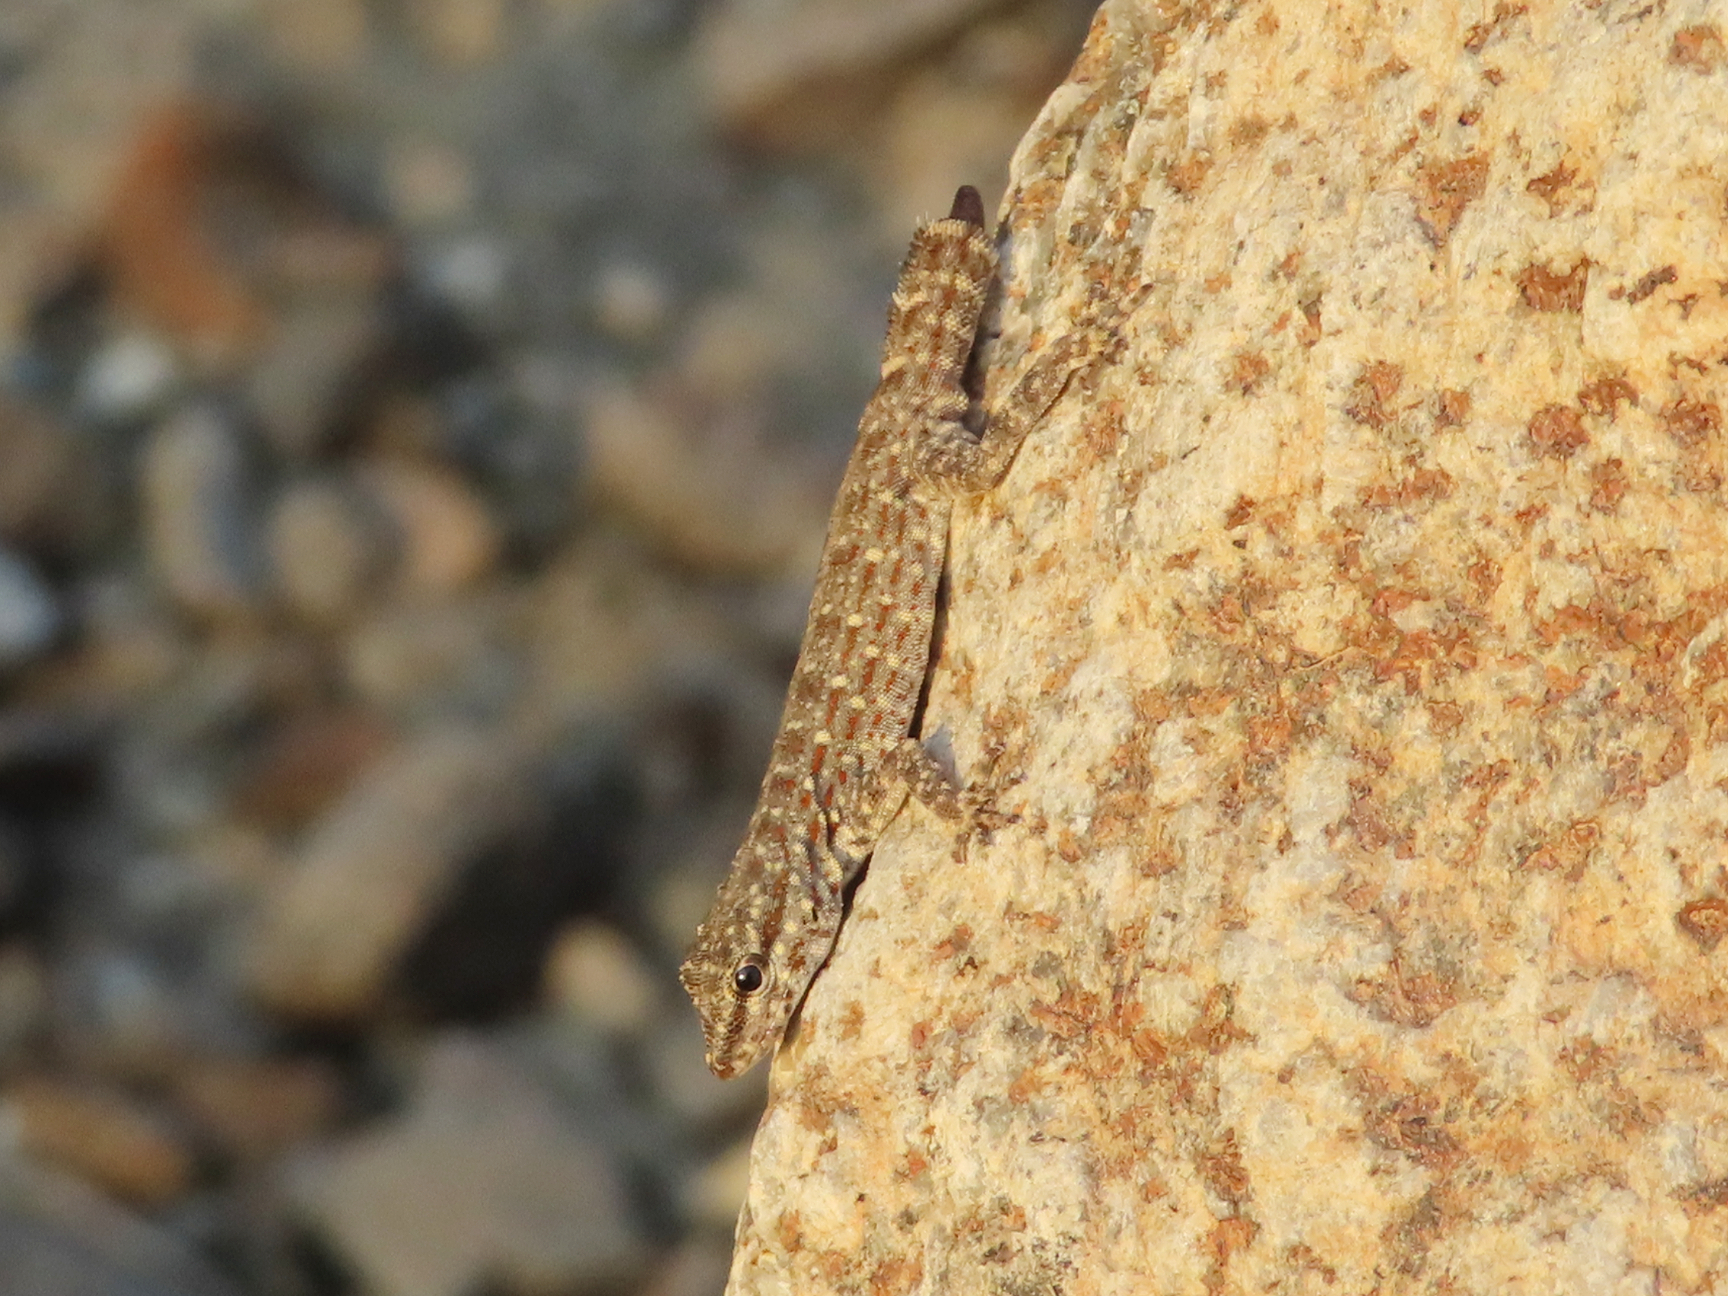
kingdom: Animalia
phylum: Chordata
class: Squamata
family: Sphaerodactylidae
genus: Pristurus
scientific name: Pristurus rupestris
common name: Blanford’s semaphore gecko
